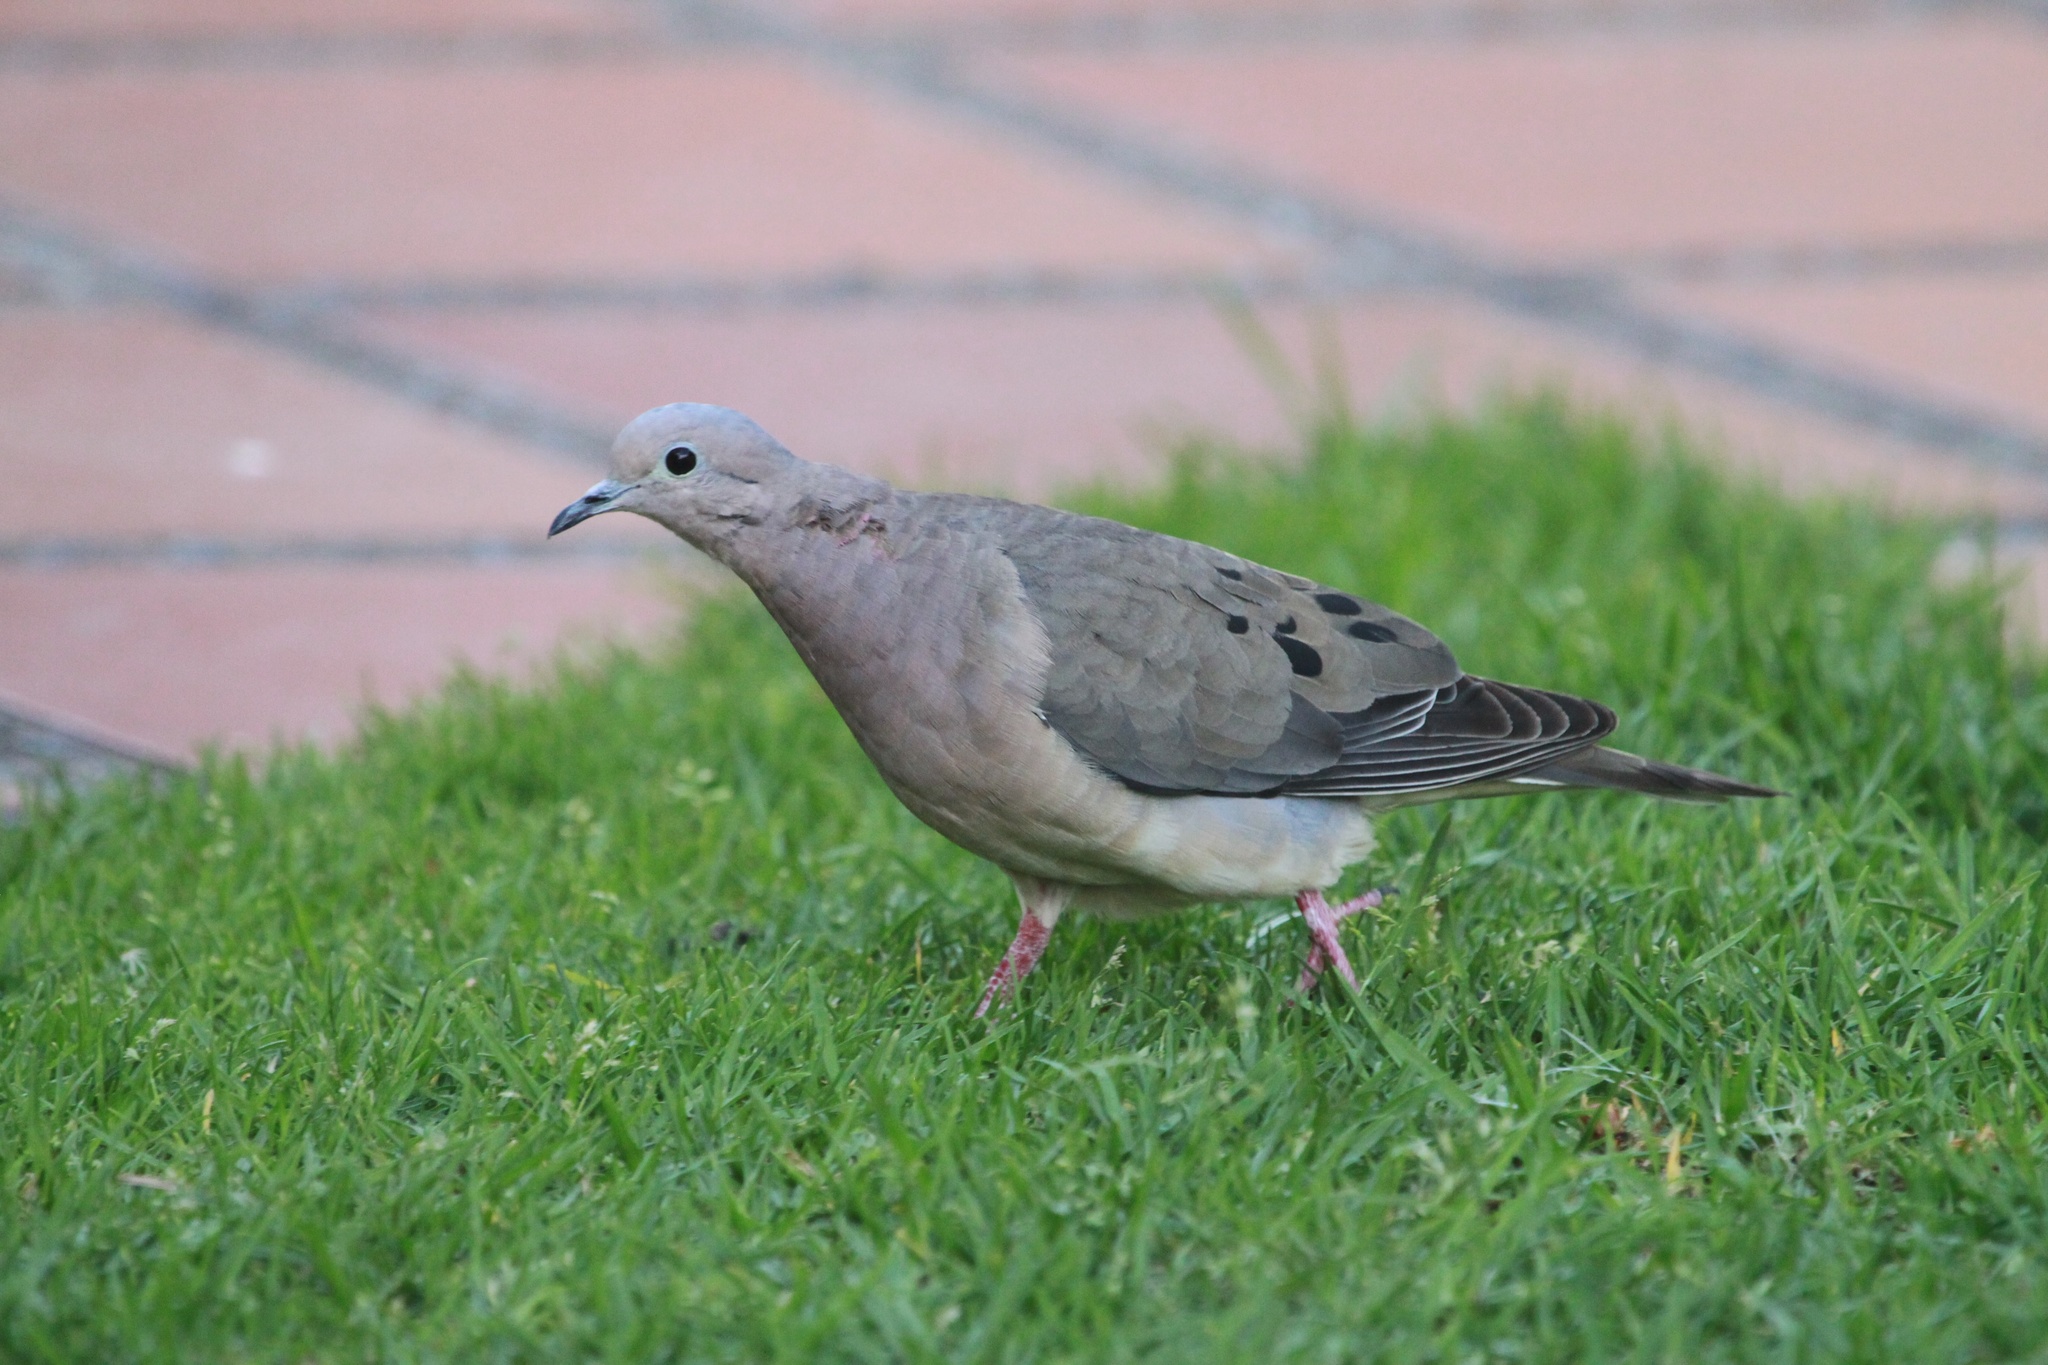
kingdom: Animalia
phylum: Chordata
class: Aves
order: Columbiformes
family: Columbidae
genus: Zenaida
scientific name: Zenaida auriculata
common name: Eared dove
